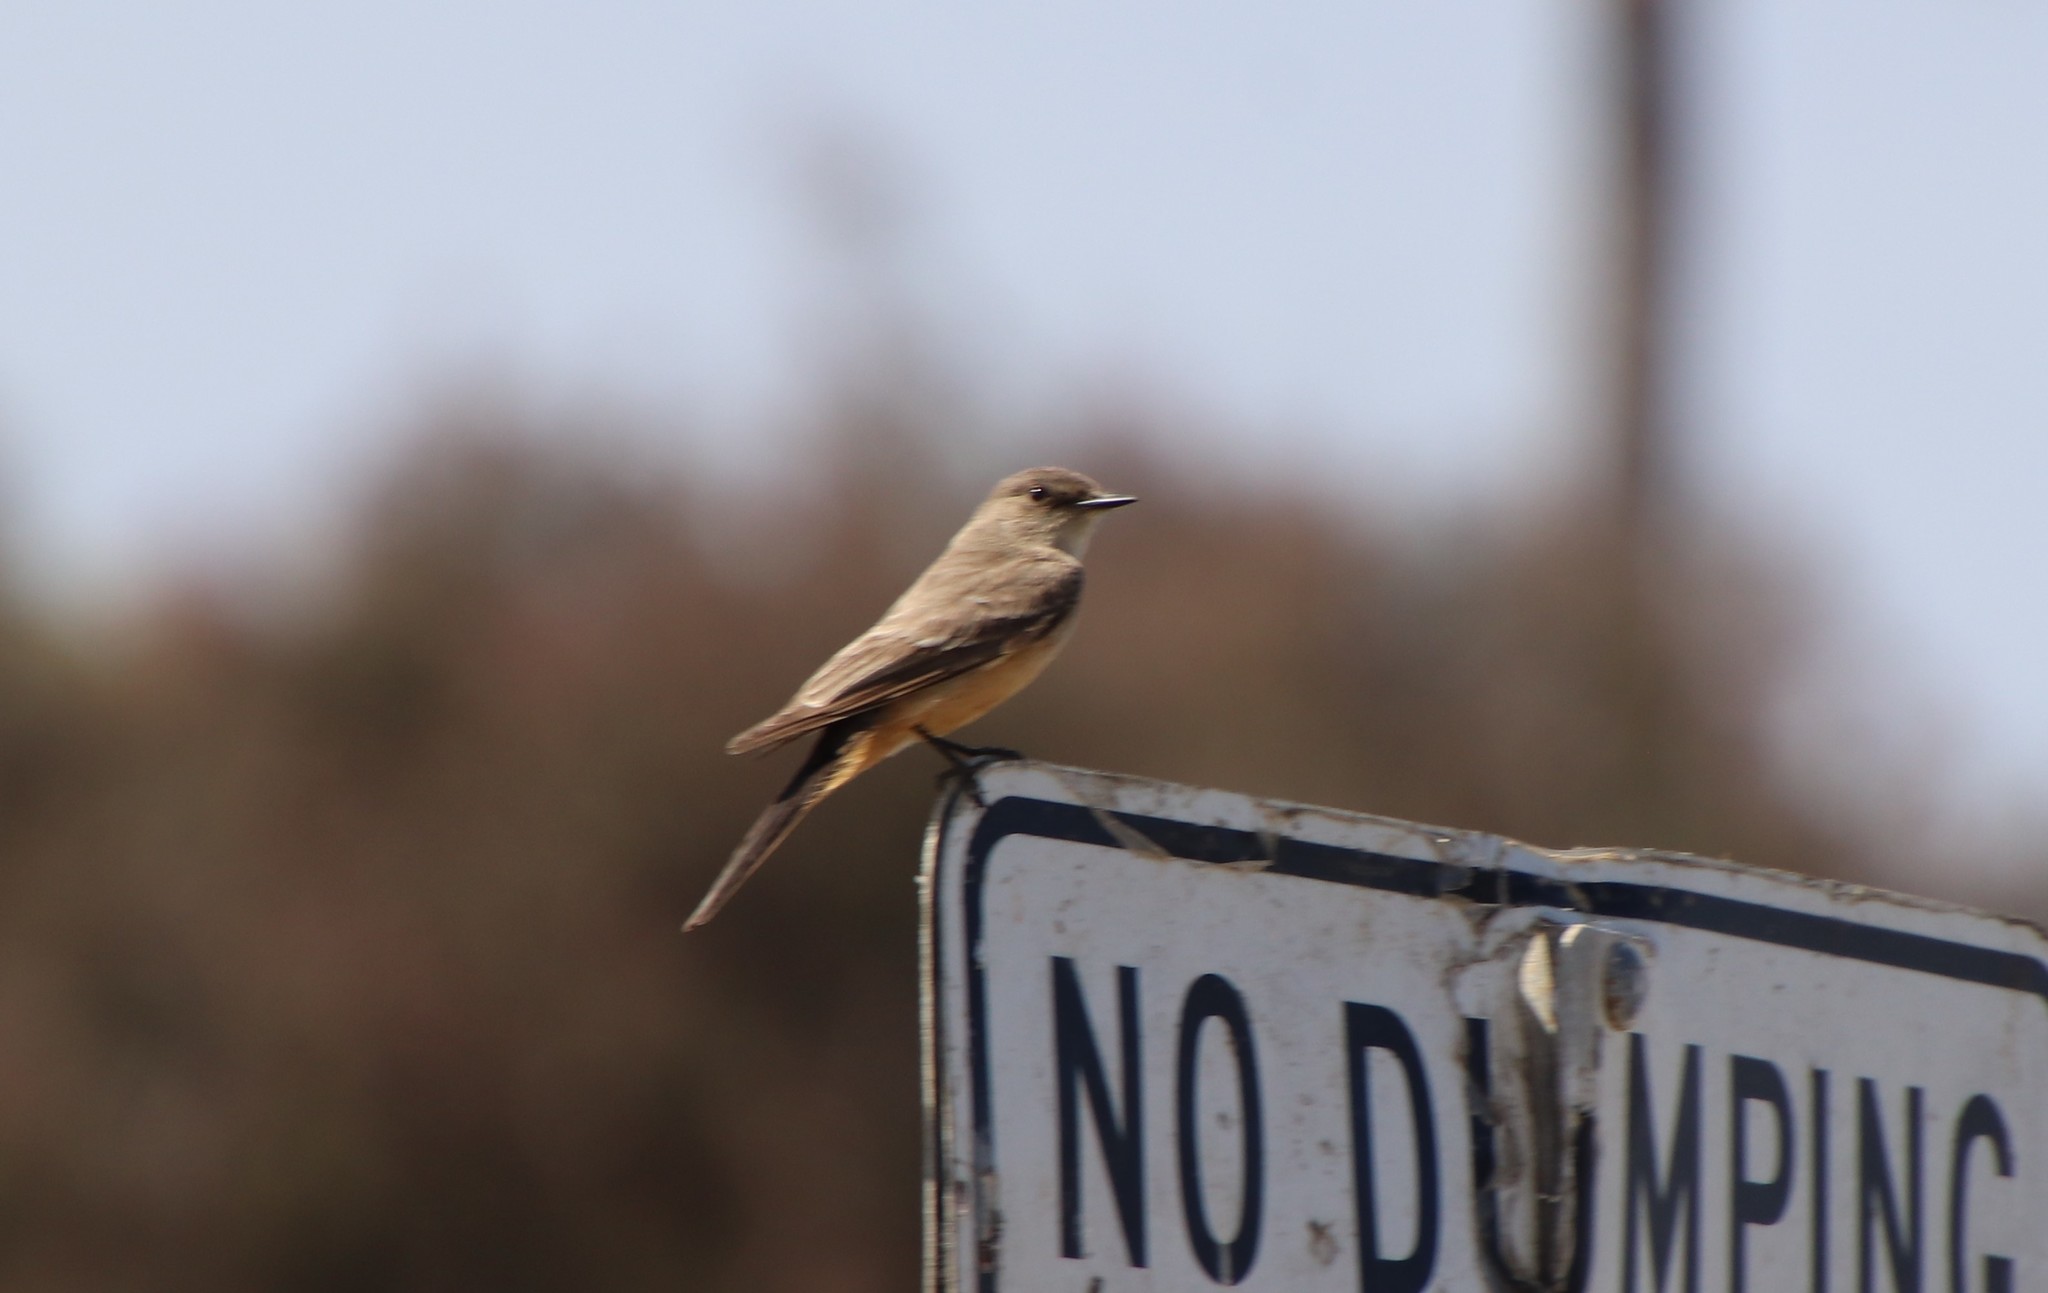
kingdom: Animalia
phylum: Chordata
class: Aves
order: Passeriformes
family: Tyrannidae
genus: Sayornis
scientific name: Sayornis saya
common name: Say's phoebe
